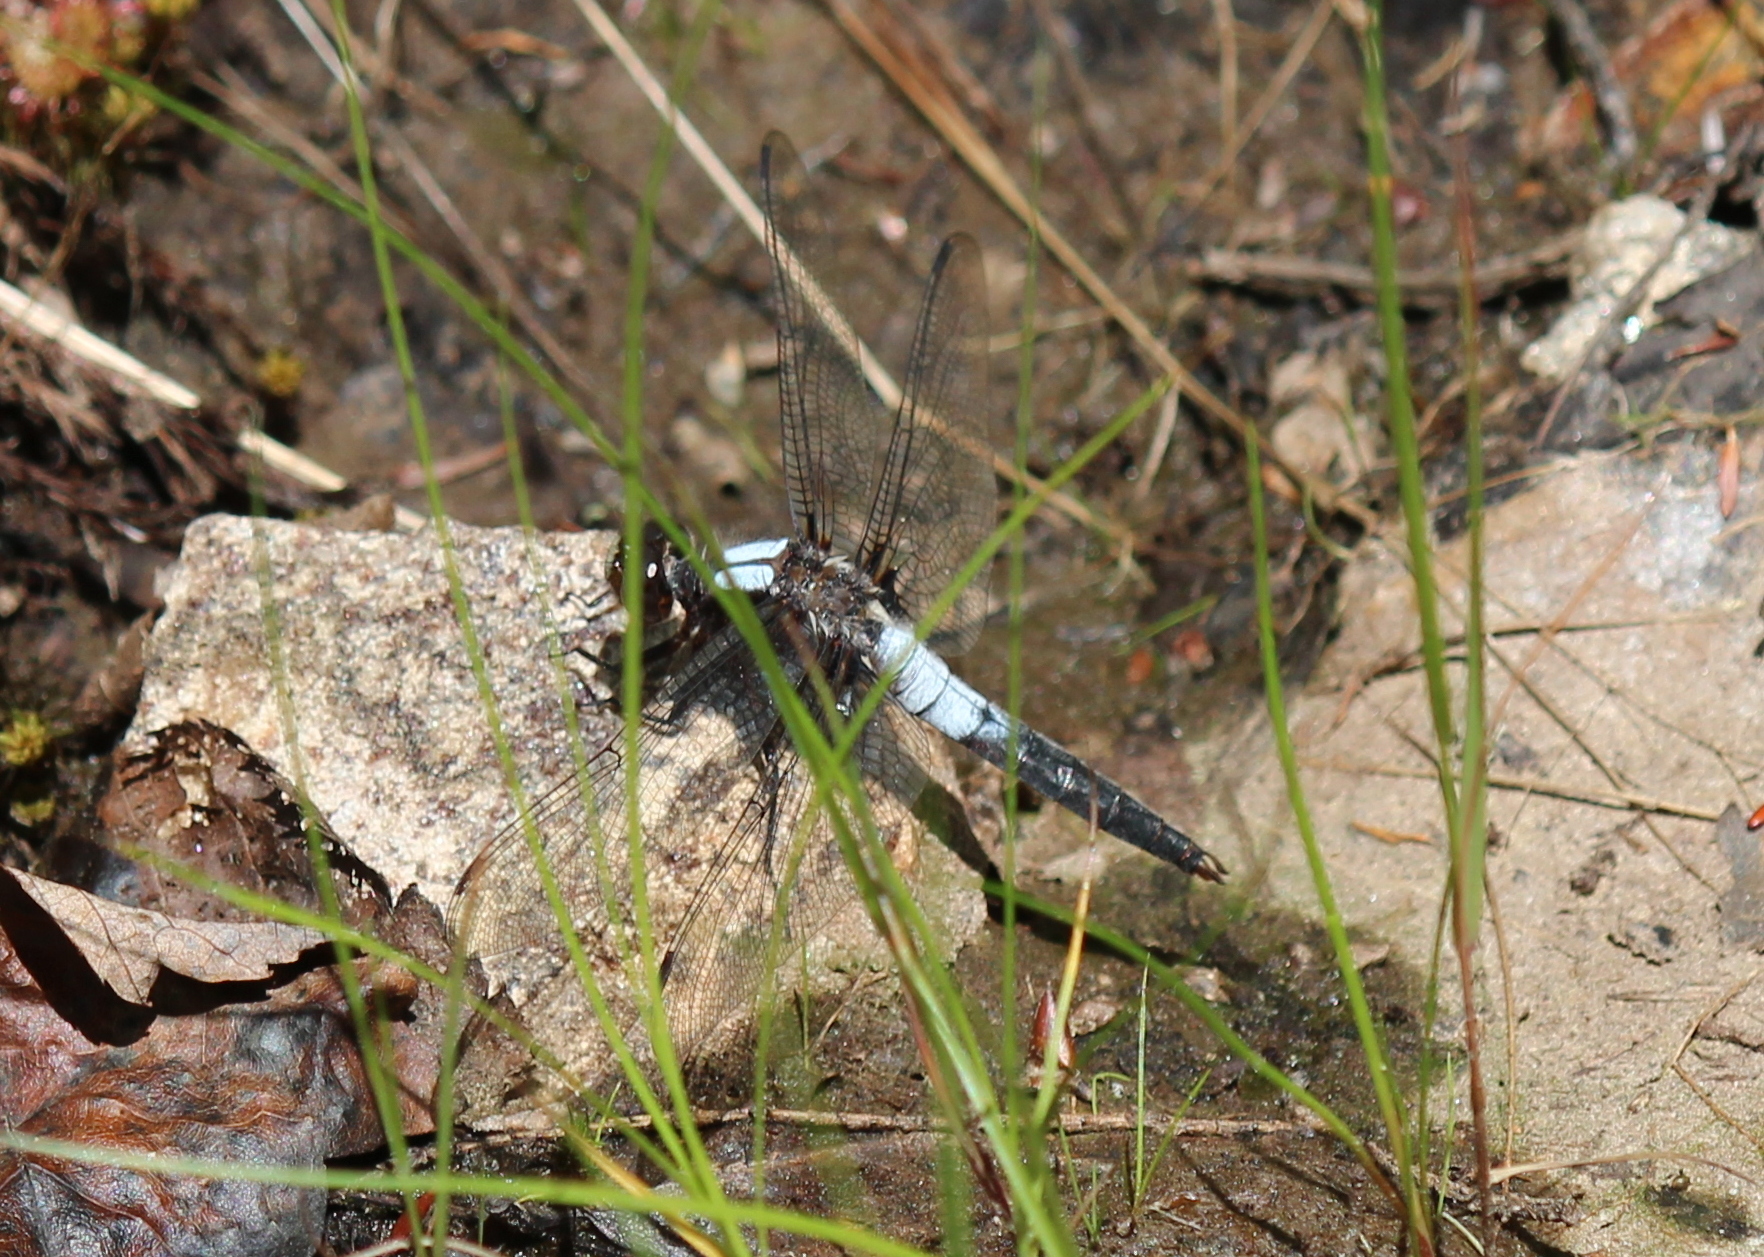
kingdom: Animalia
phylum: Arthropoda
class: Insecta
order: Odonata
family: Libellulidae
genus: Ladona
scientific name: Ladona julia
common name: Chalk-fronted corporal
